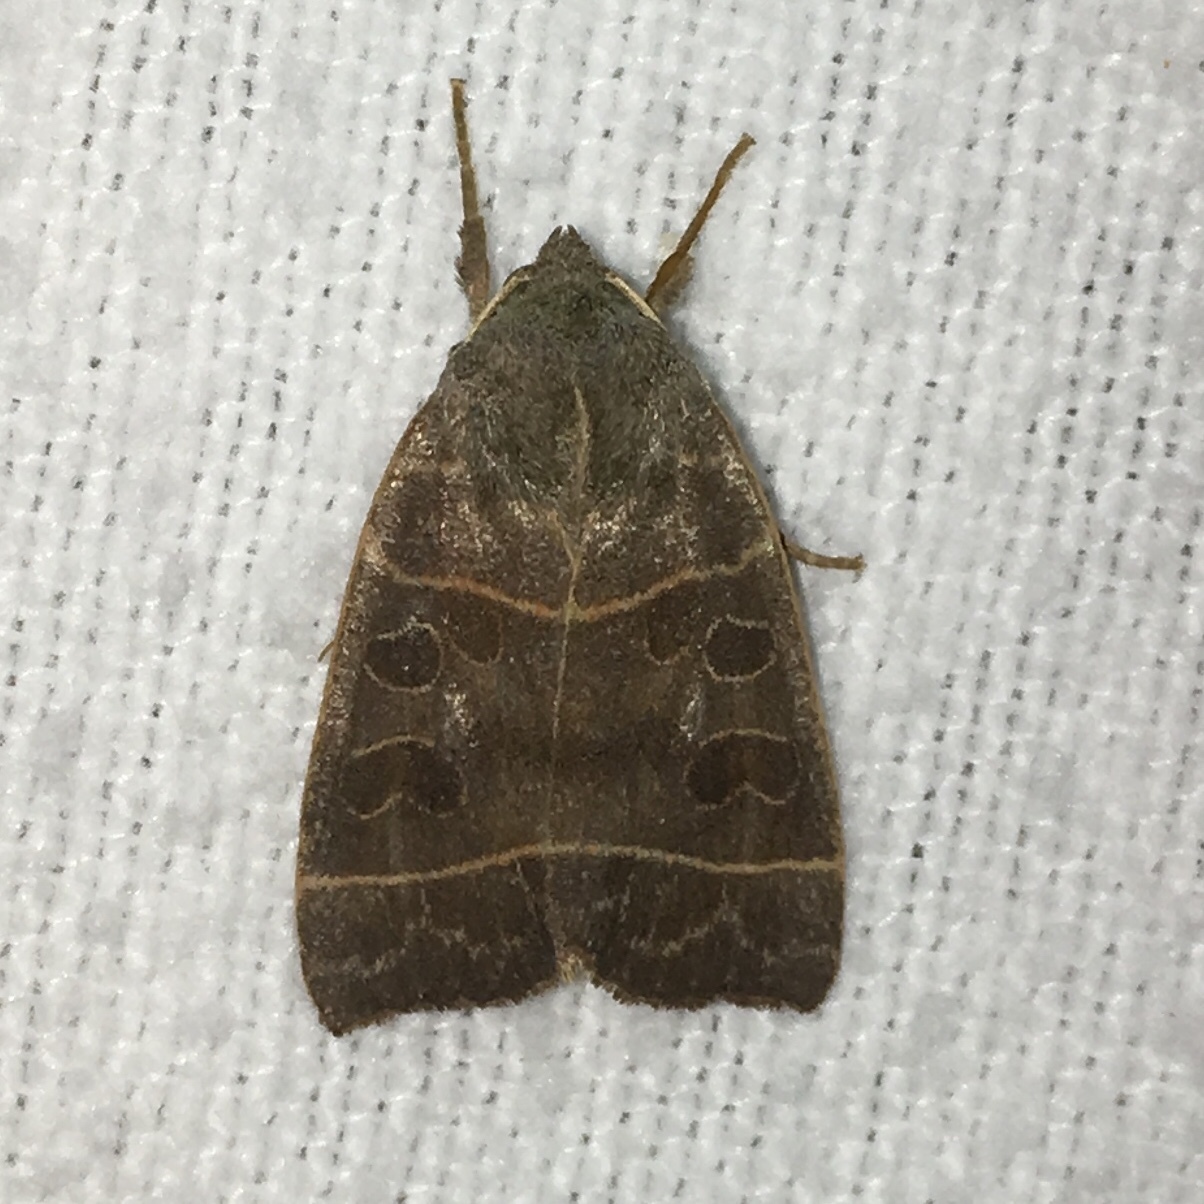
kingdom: Animalia
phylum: Arthropoda
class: Insecta
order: Lepidoptera
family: Noctuidae
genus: Ipimorpha
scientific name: Ipimorpha pleonectusa
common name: Even-lined sallow
